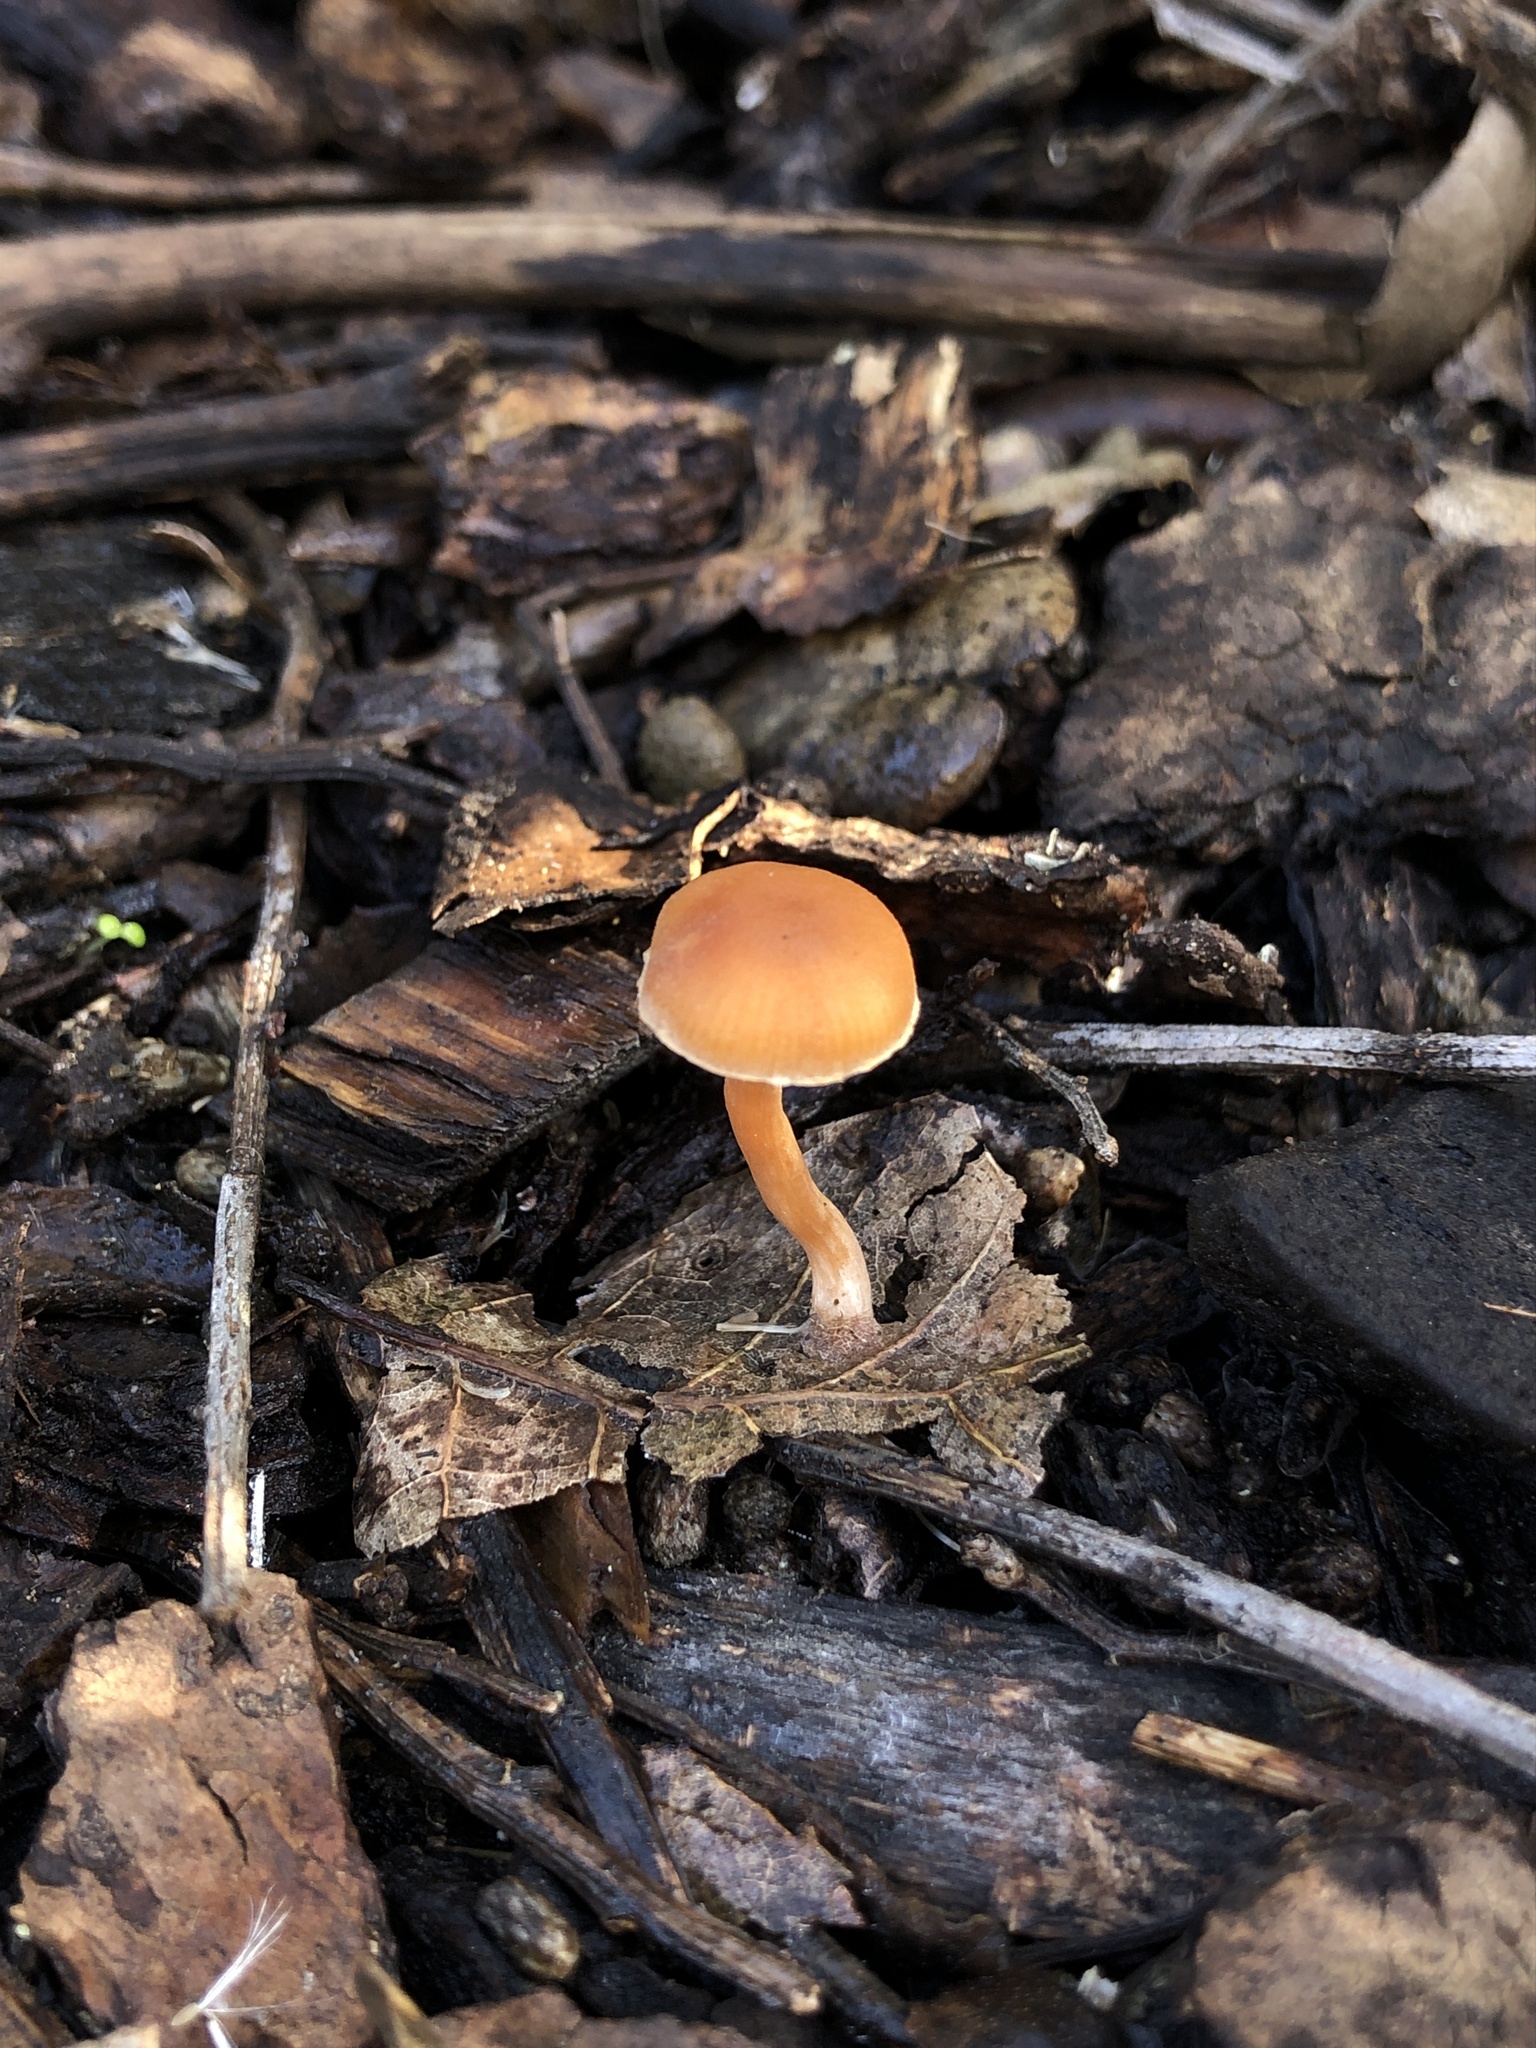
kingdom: Fungi
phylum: Basidiomycota
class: Agaricomycetes
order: Agaricales
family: Tubariaceae
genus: Tubaria
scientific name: Tubaria furfuracea
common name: Scurfy twiglet
